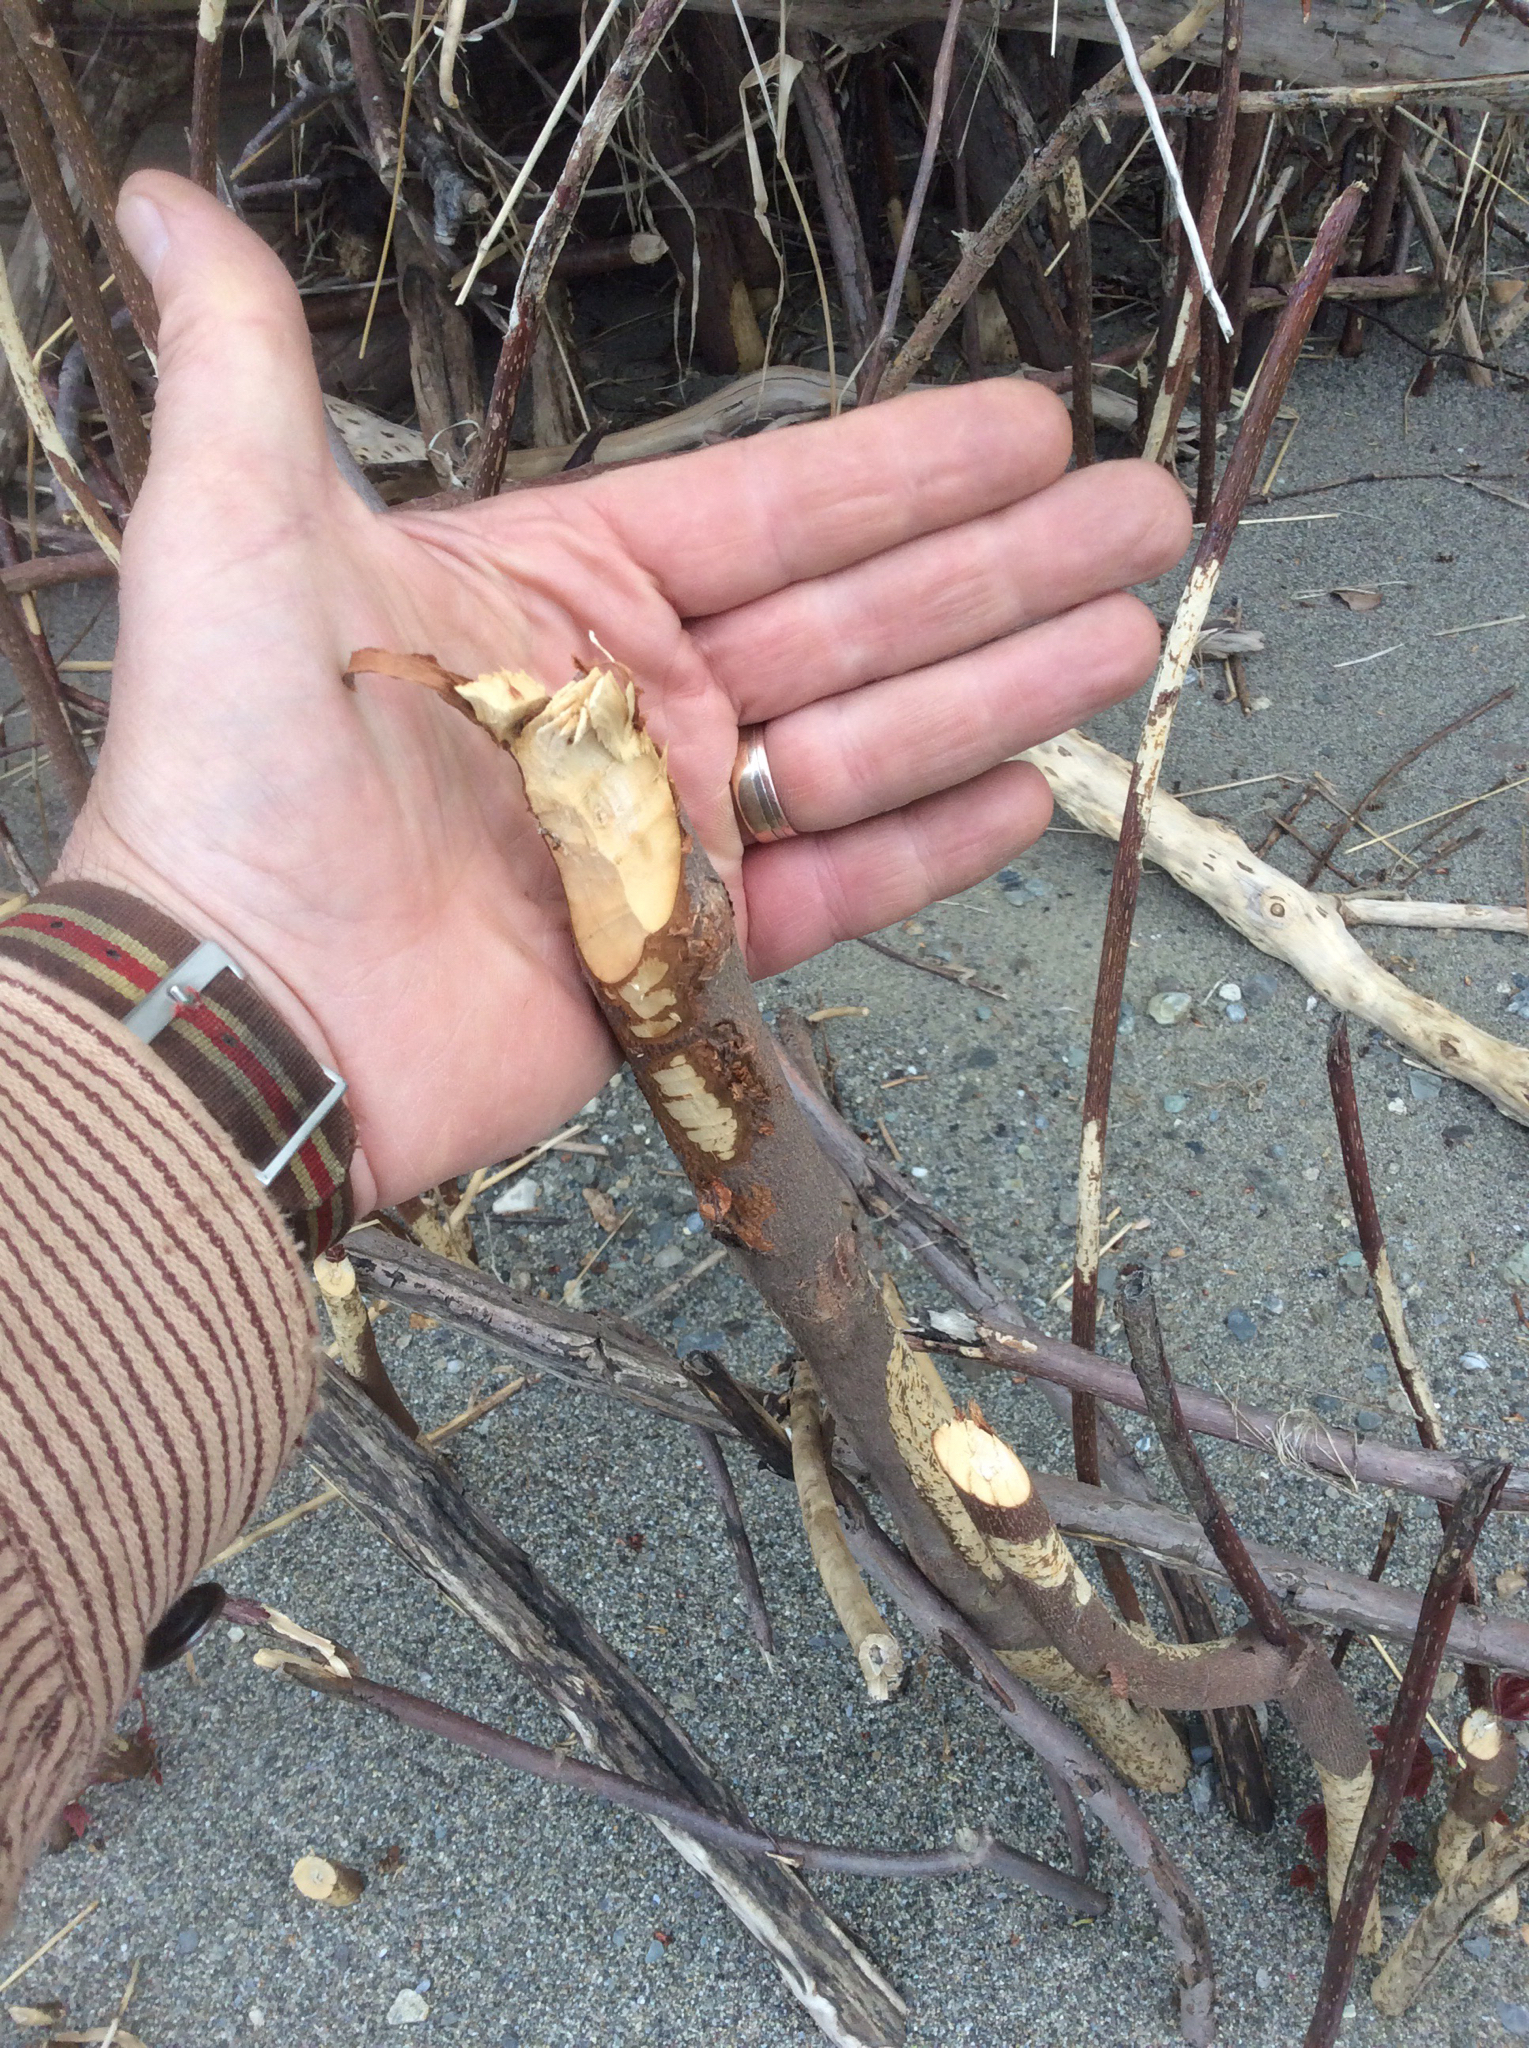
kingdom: Animalia
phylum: Chordata
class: Mammalia
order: Rodentia
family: Castoridae
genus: Castor
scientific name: Castor canadensis
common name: American beaver
